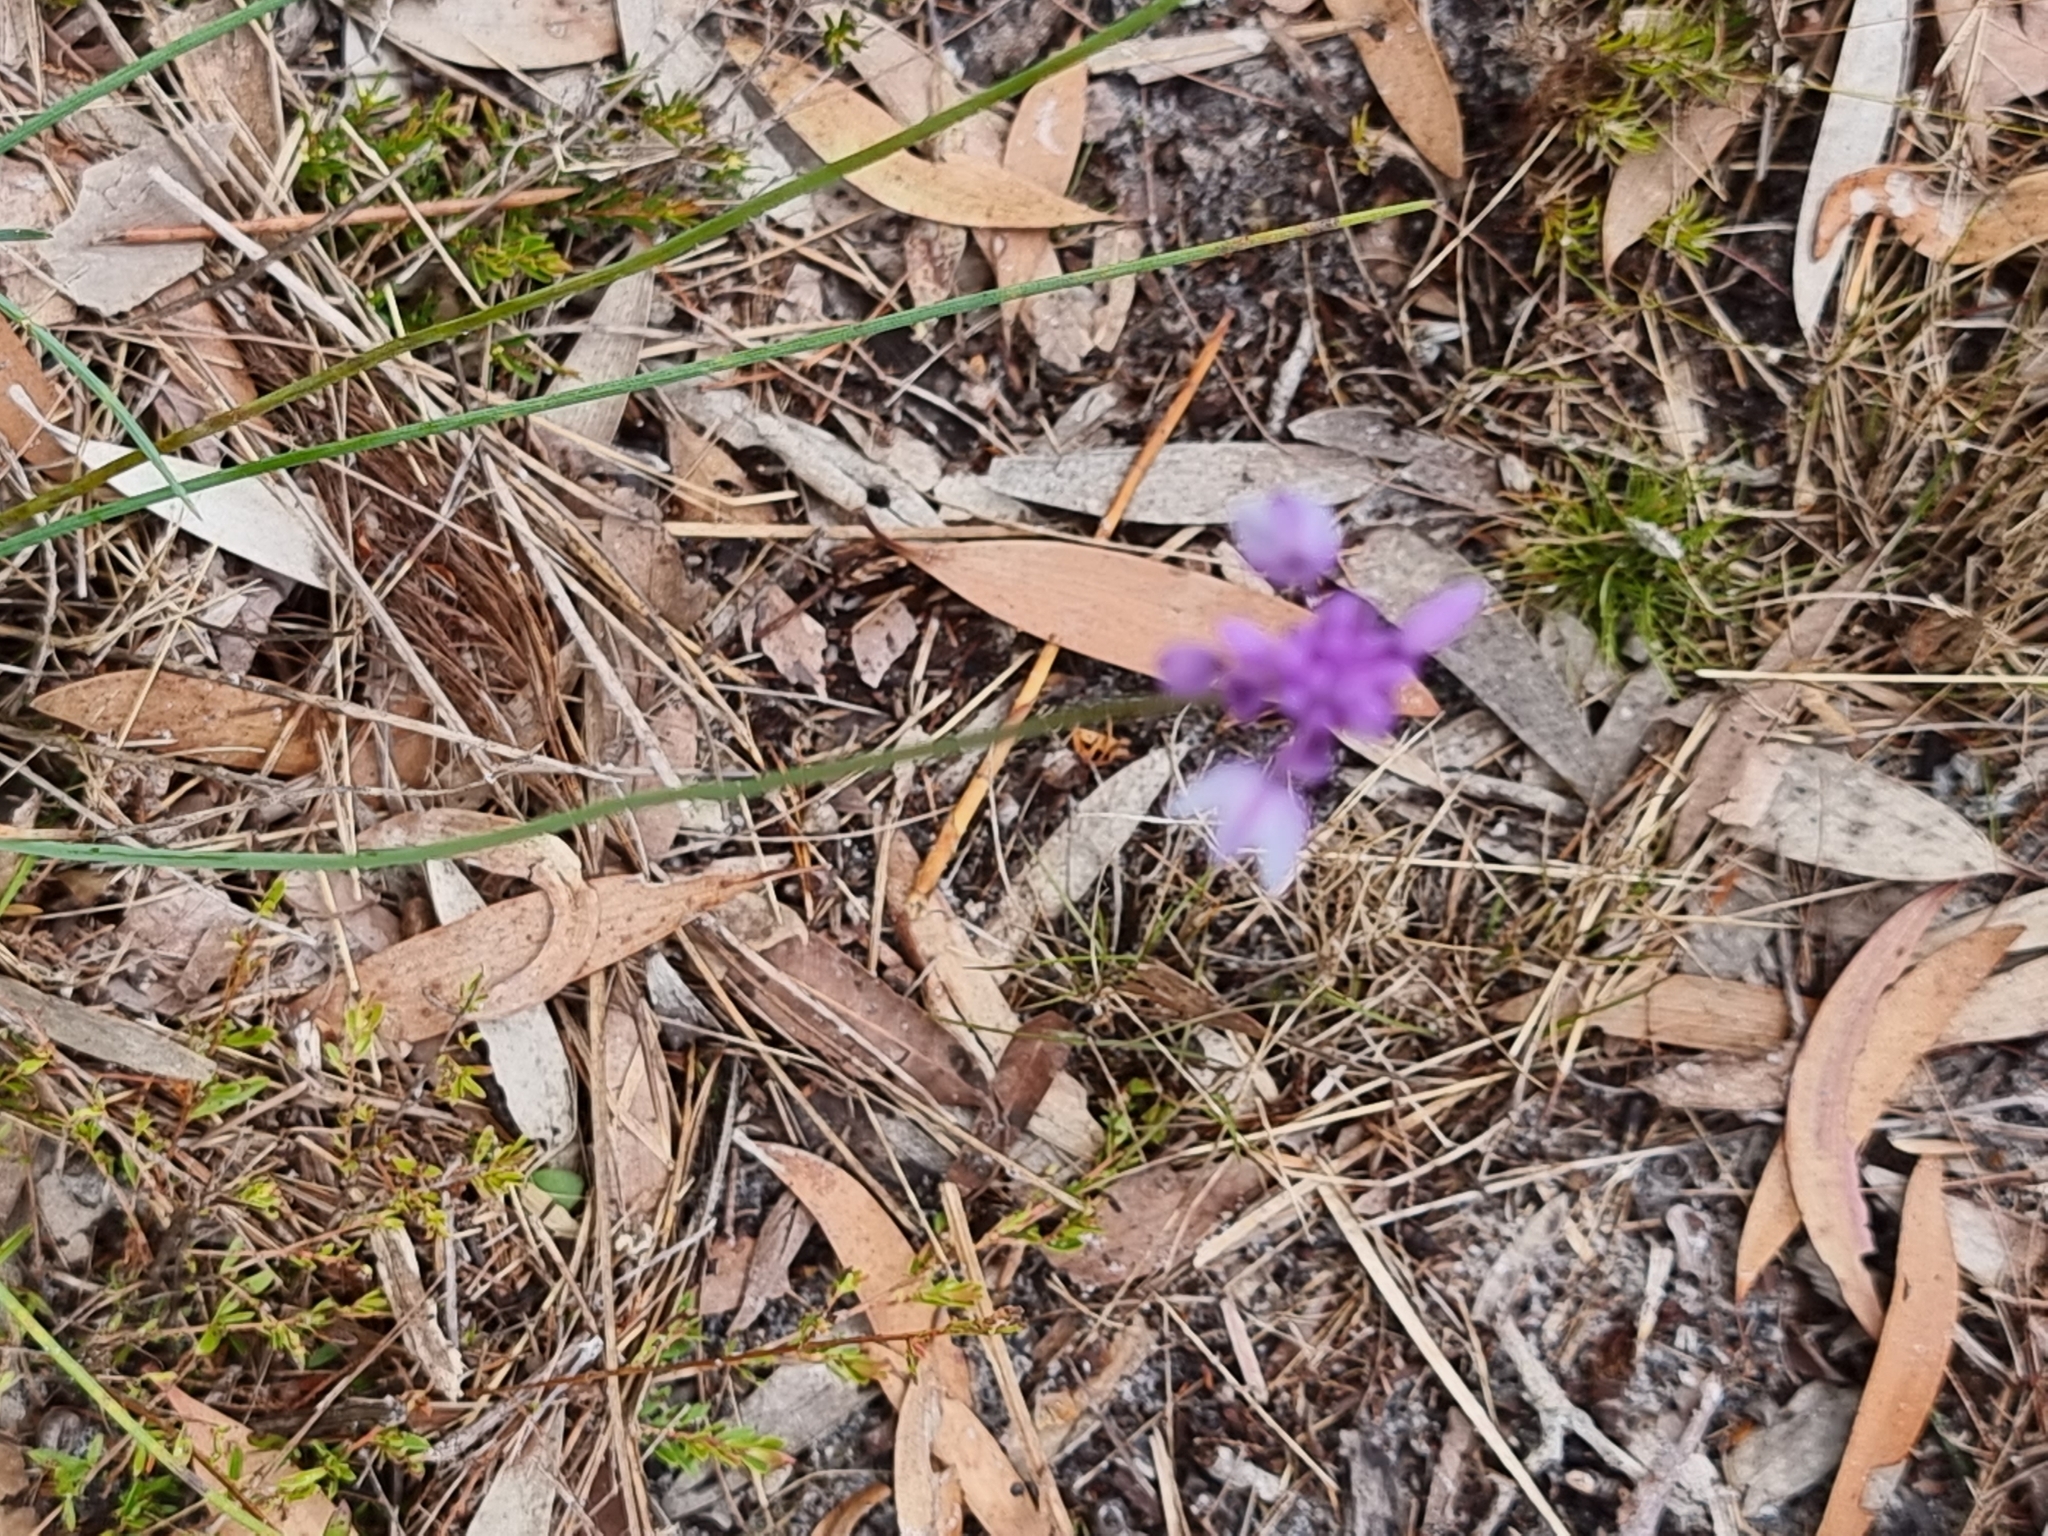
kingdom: Plantae
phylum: Tracheophyta
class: Liliopsida
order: Asparagales
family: Asparagaceae
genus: Sowerbaea
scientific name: Sowerbaea juncea
